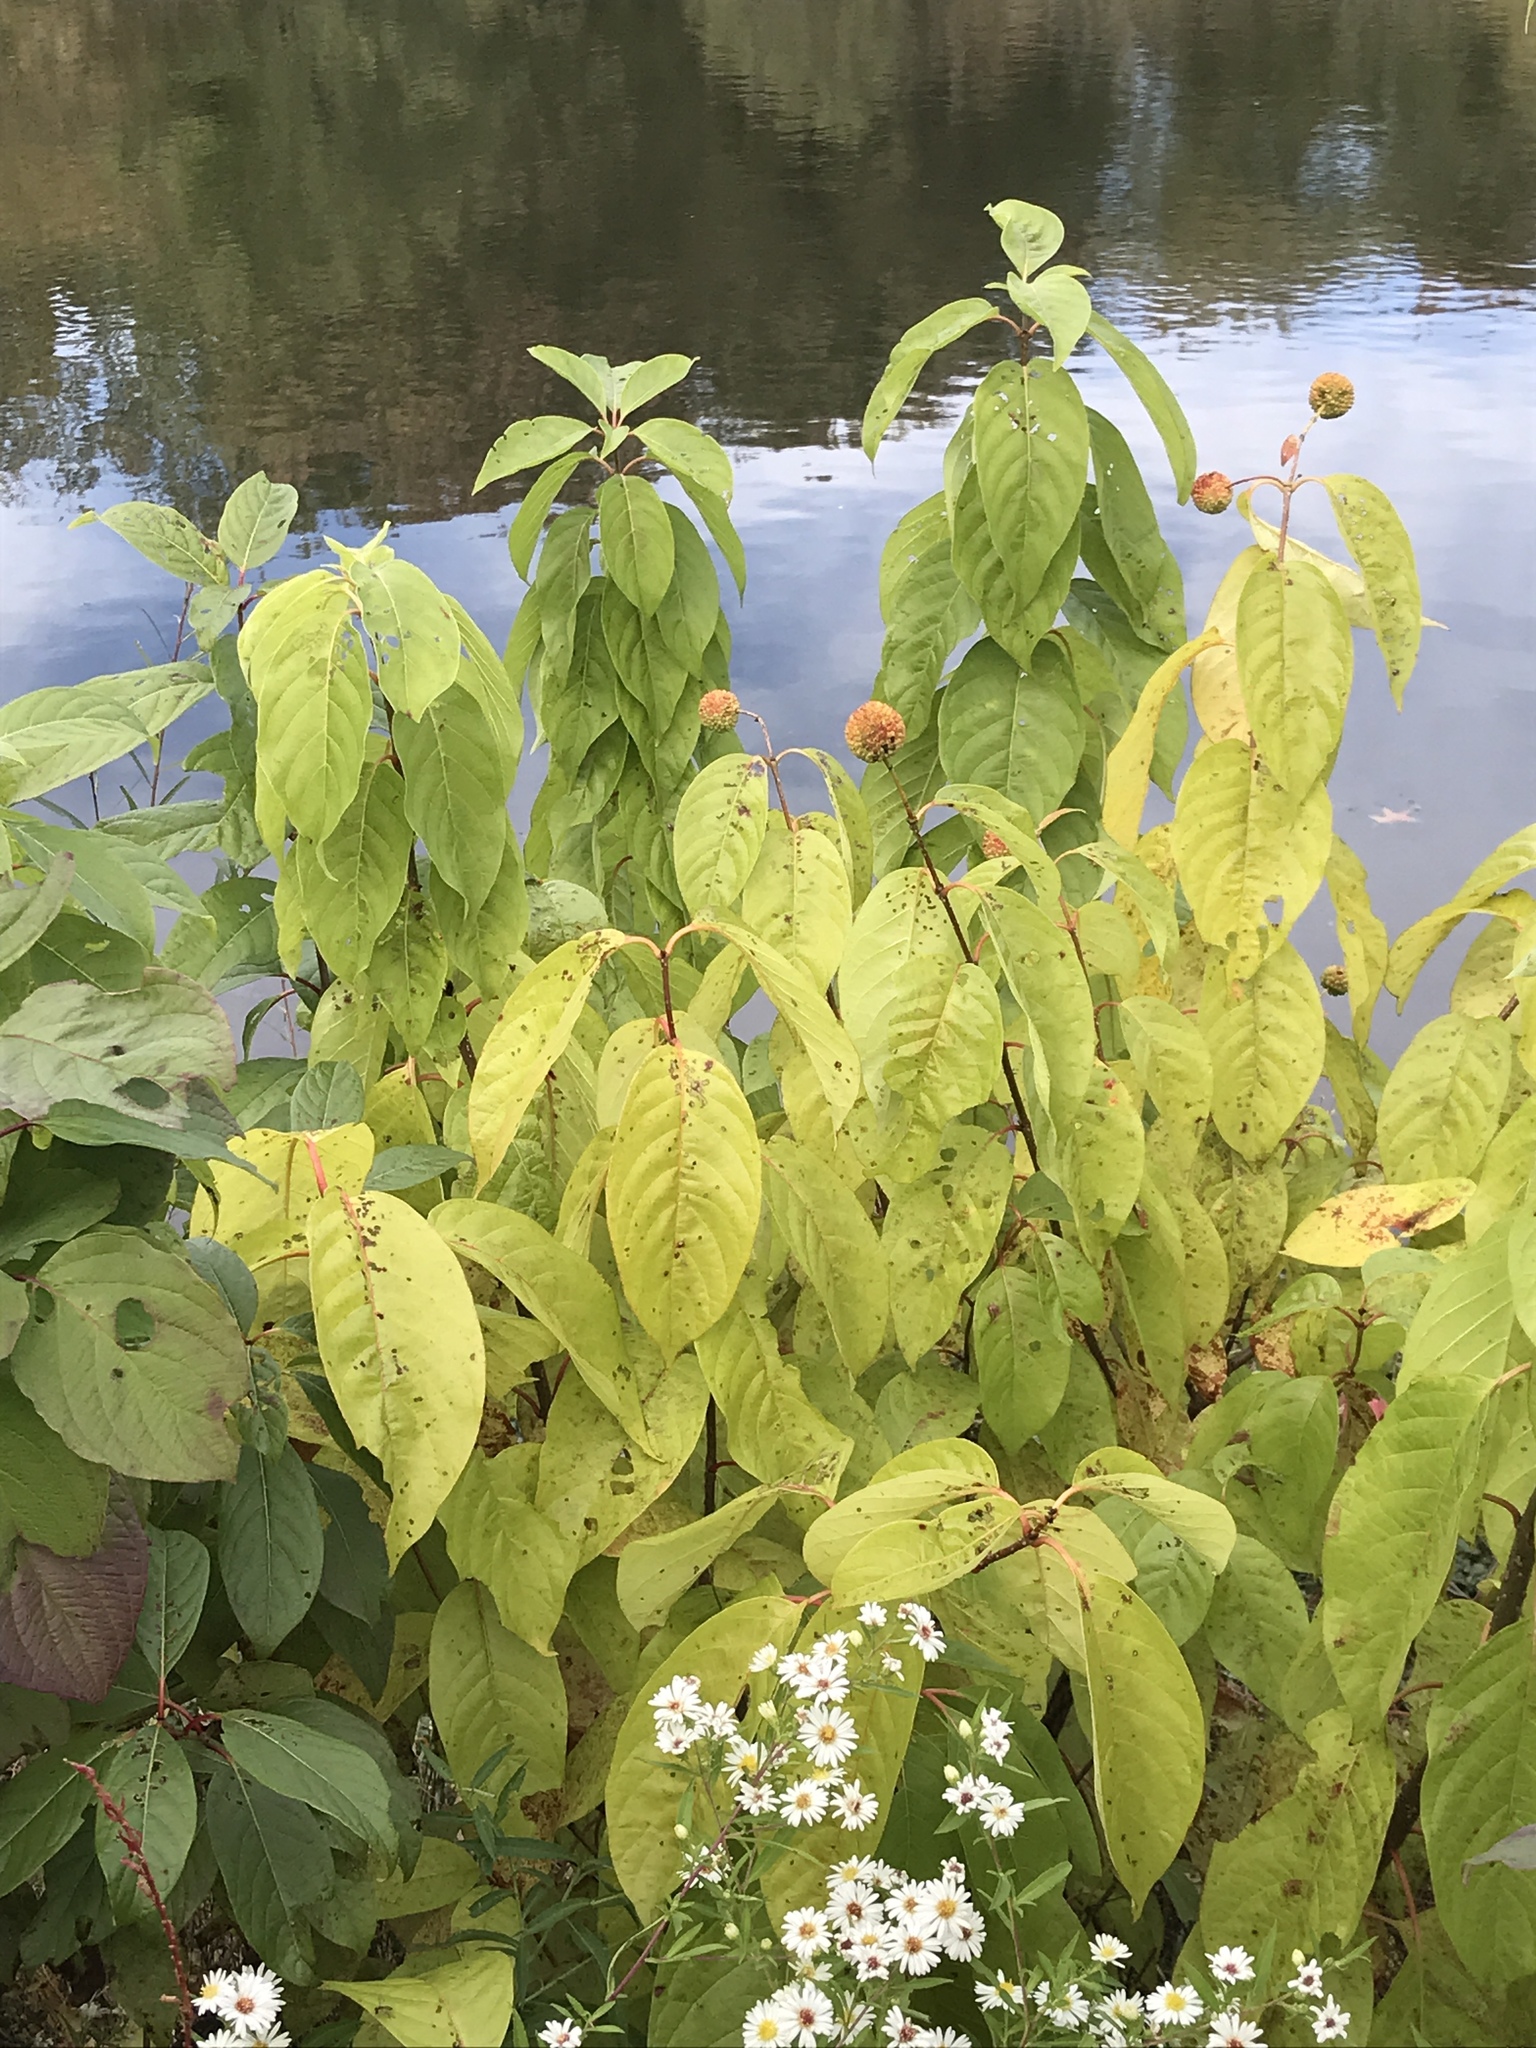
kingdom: Plantae
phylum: Tracheophyta
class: Magnoliopsida
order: Gentianales
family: Rubiaceae
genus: Cephalanthus
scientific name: Cephalanthus occidentalis
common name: Button-willow
